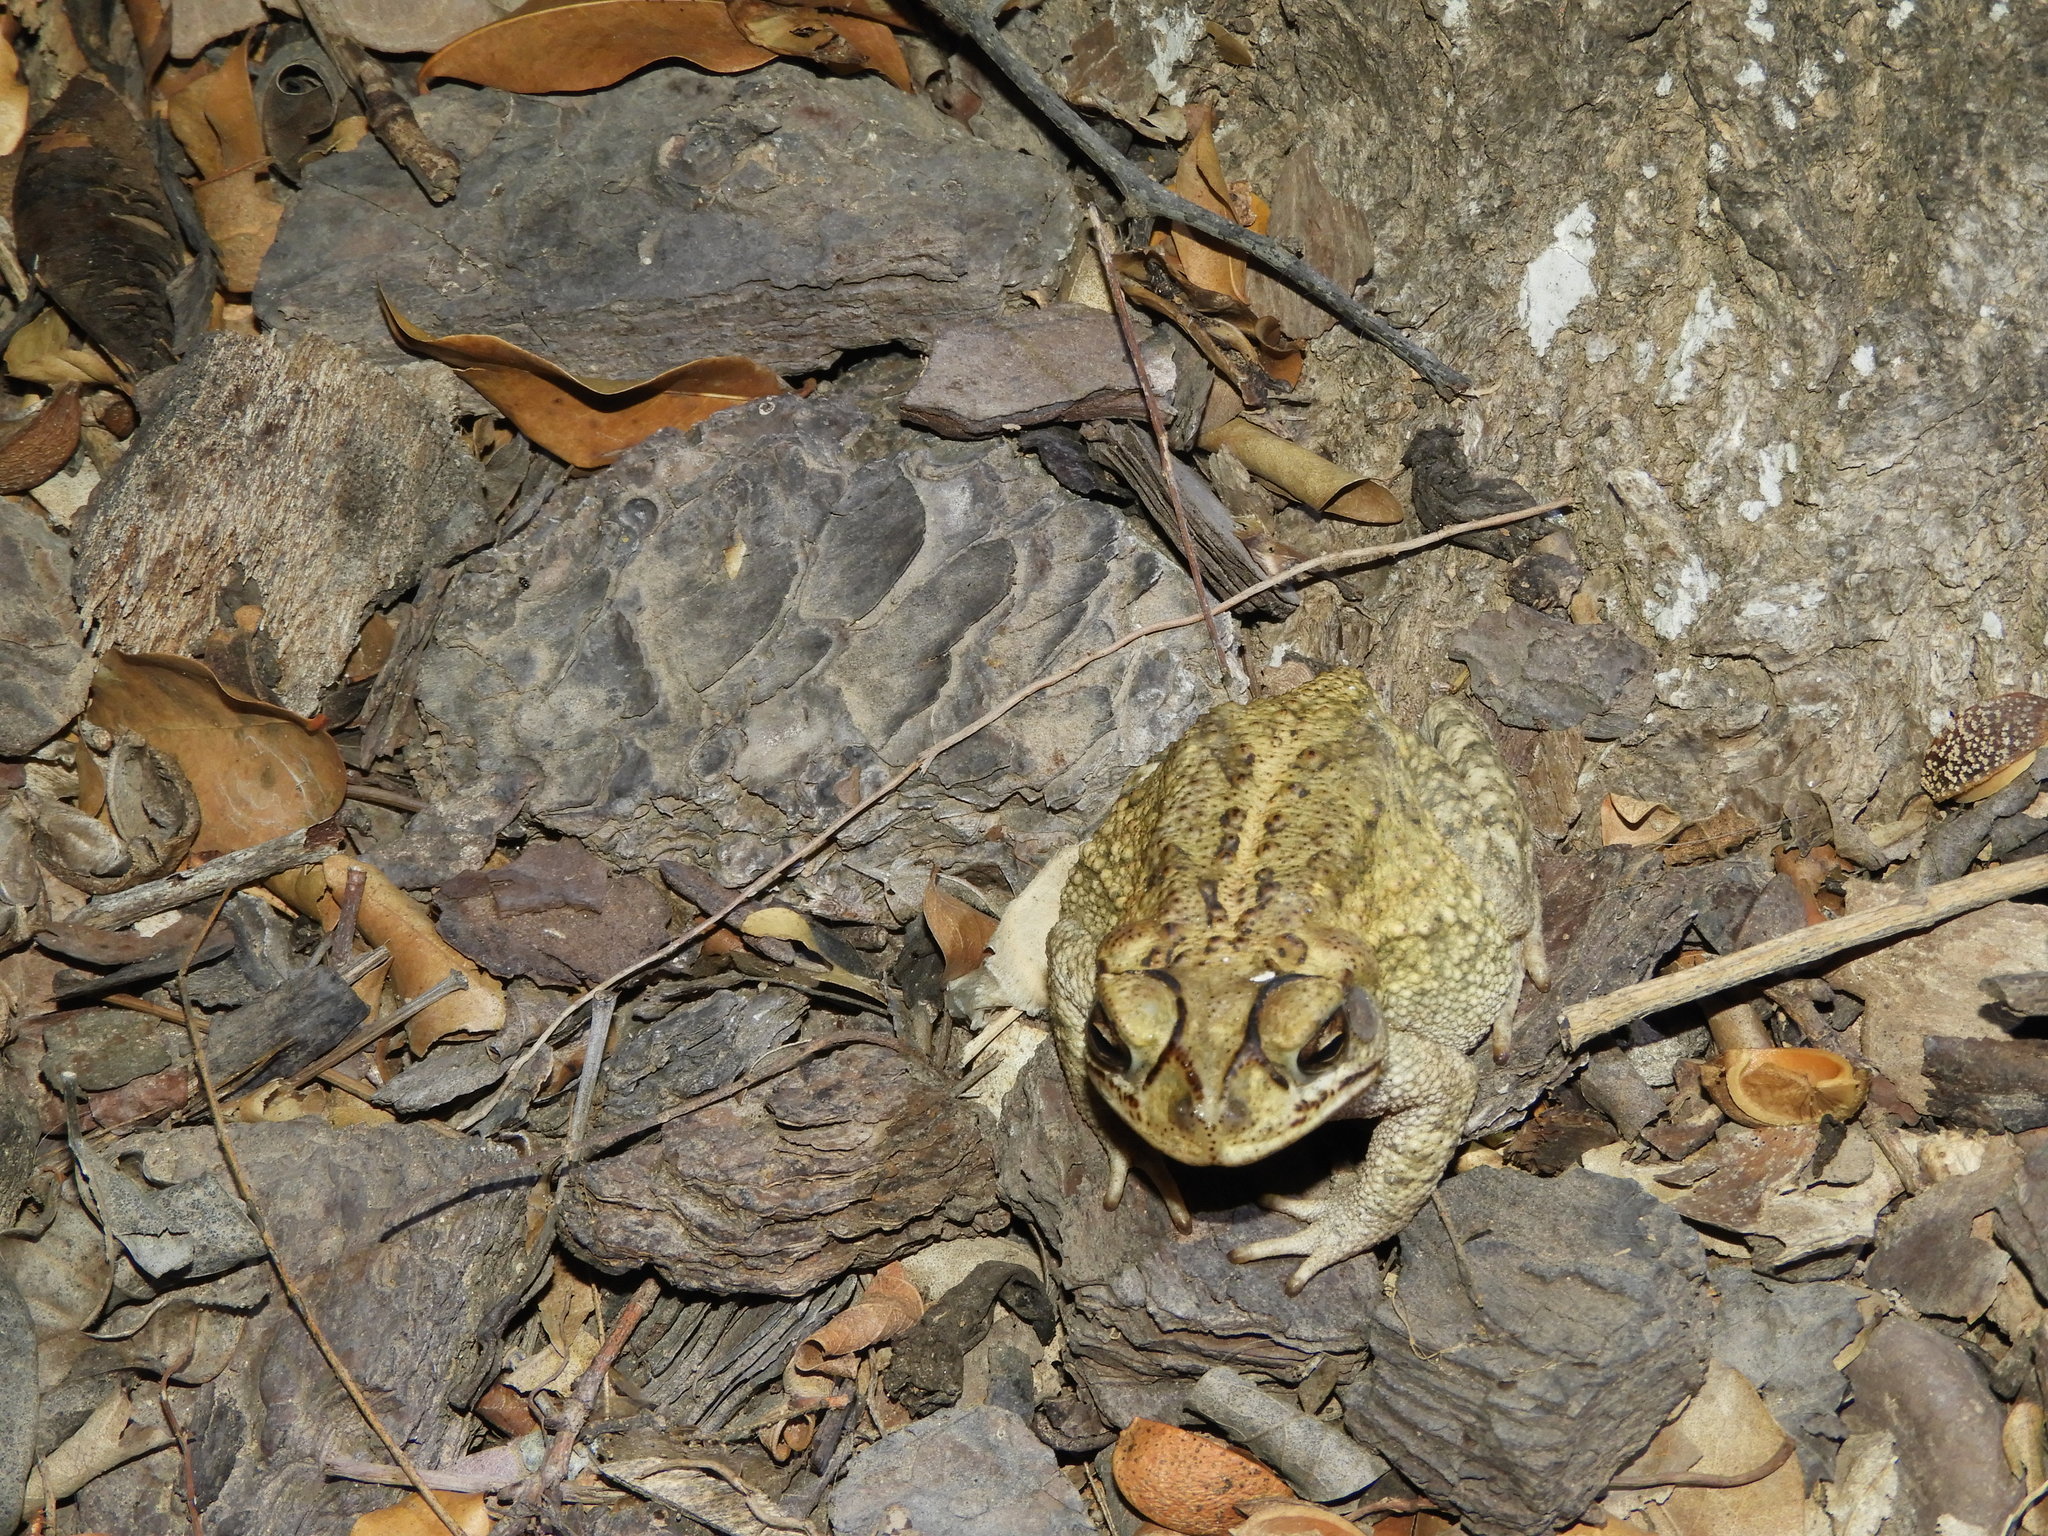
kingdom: Animalia
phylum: Chordata
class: Amphibia
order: Anura
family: Bufonidae
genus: Incilius
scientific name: Incilius mazatlanensis
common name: Sinaloa toad
